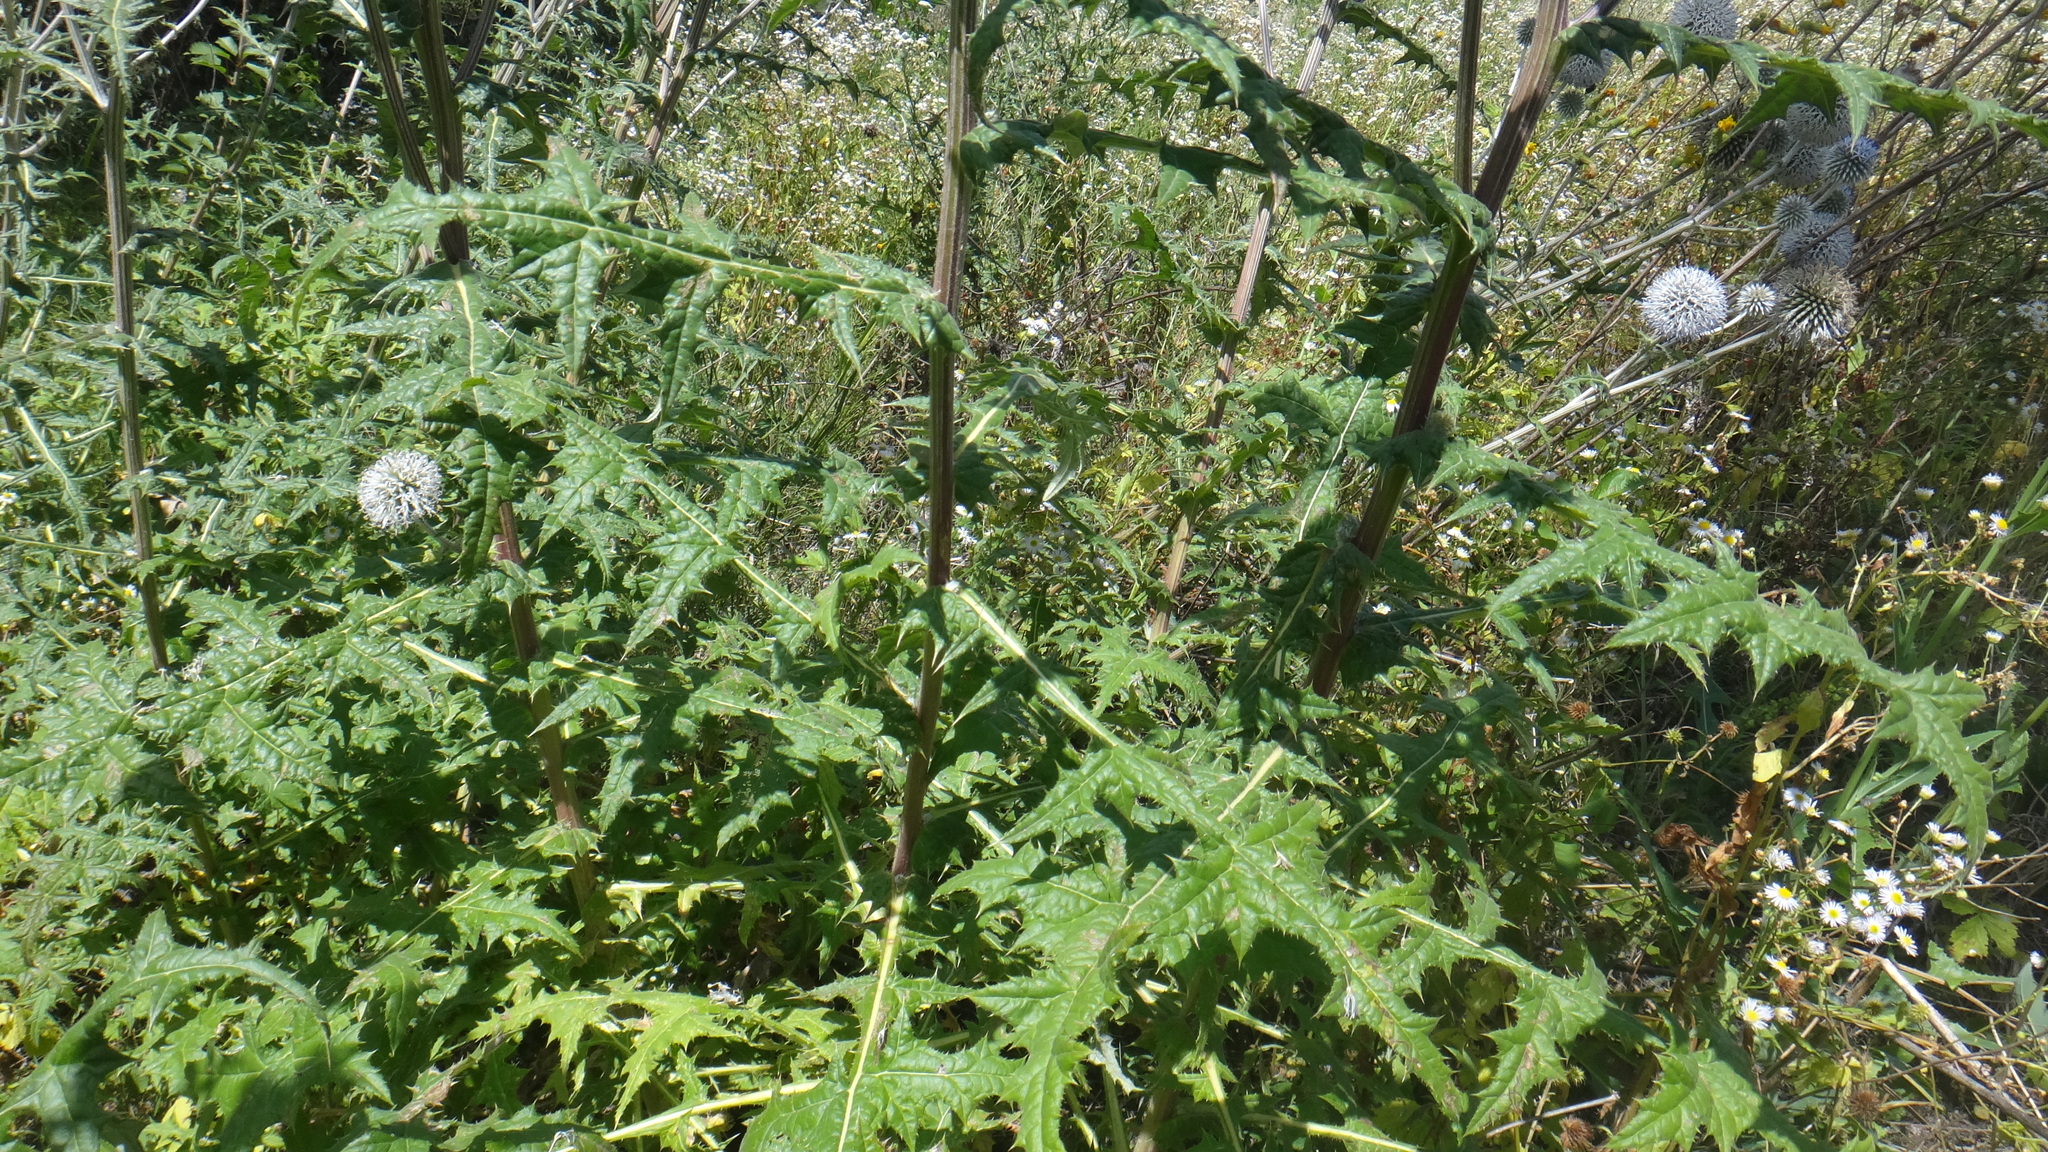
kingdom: Plantae
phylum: Tracheophyta
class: Magnoliopsida
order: Asterales
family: Asteraceae
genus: Echinops
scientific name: Echinops sphaerocephalus
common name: Glandular globe-thistle
